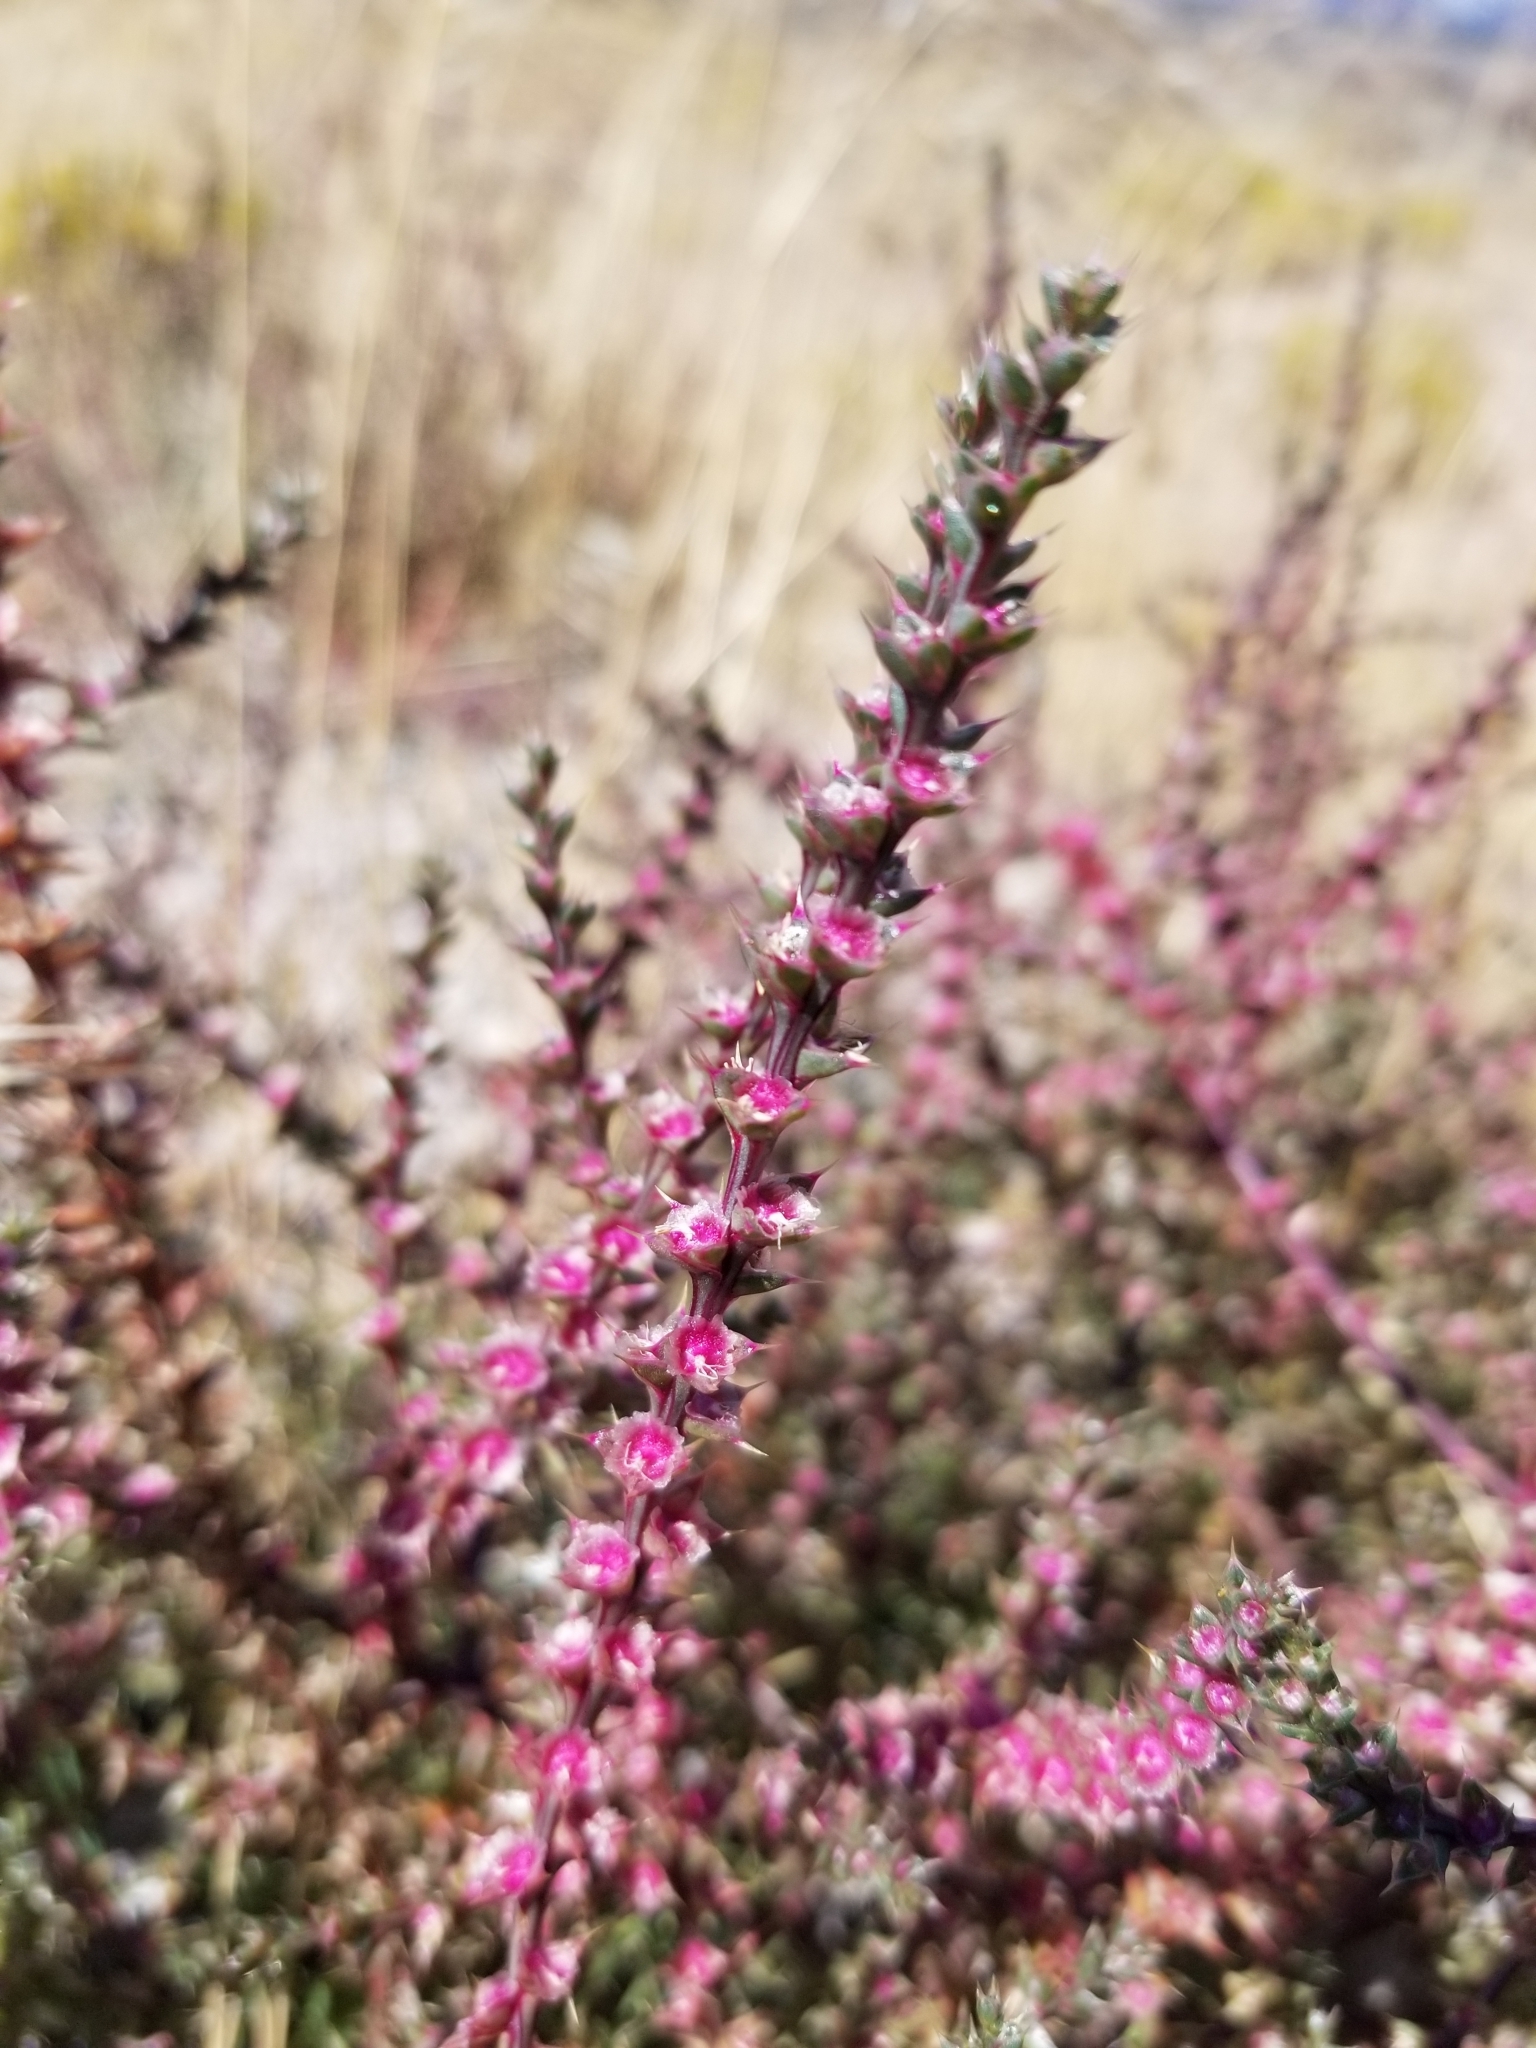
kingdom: Plantae
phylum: Tracheophyta
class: Magnoliopsida
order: Caryophyllales
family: Amaranthaceae
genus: Salsola
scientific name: Salsola tragus
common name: Prickly russian thistle
